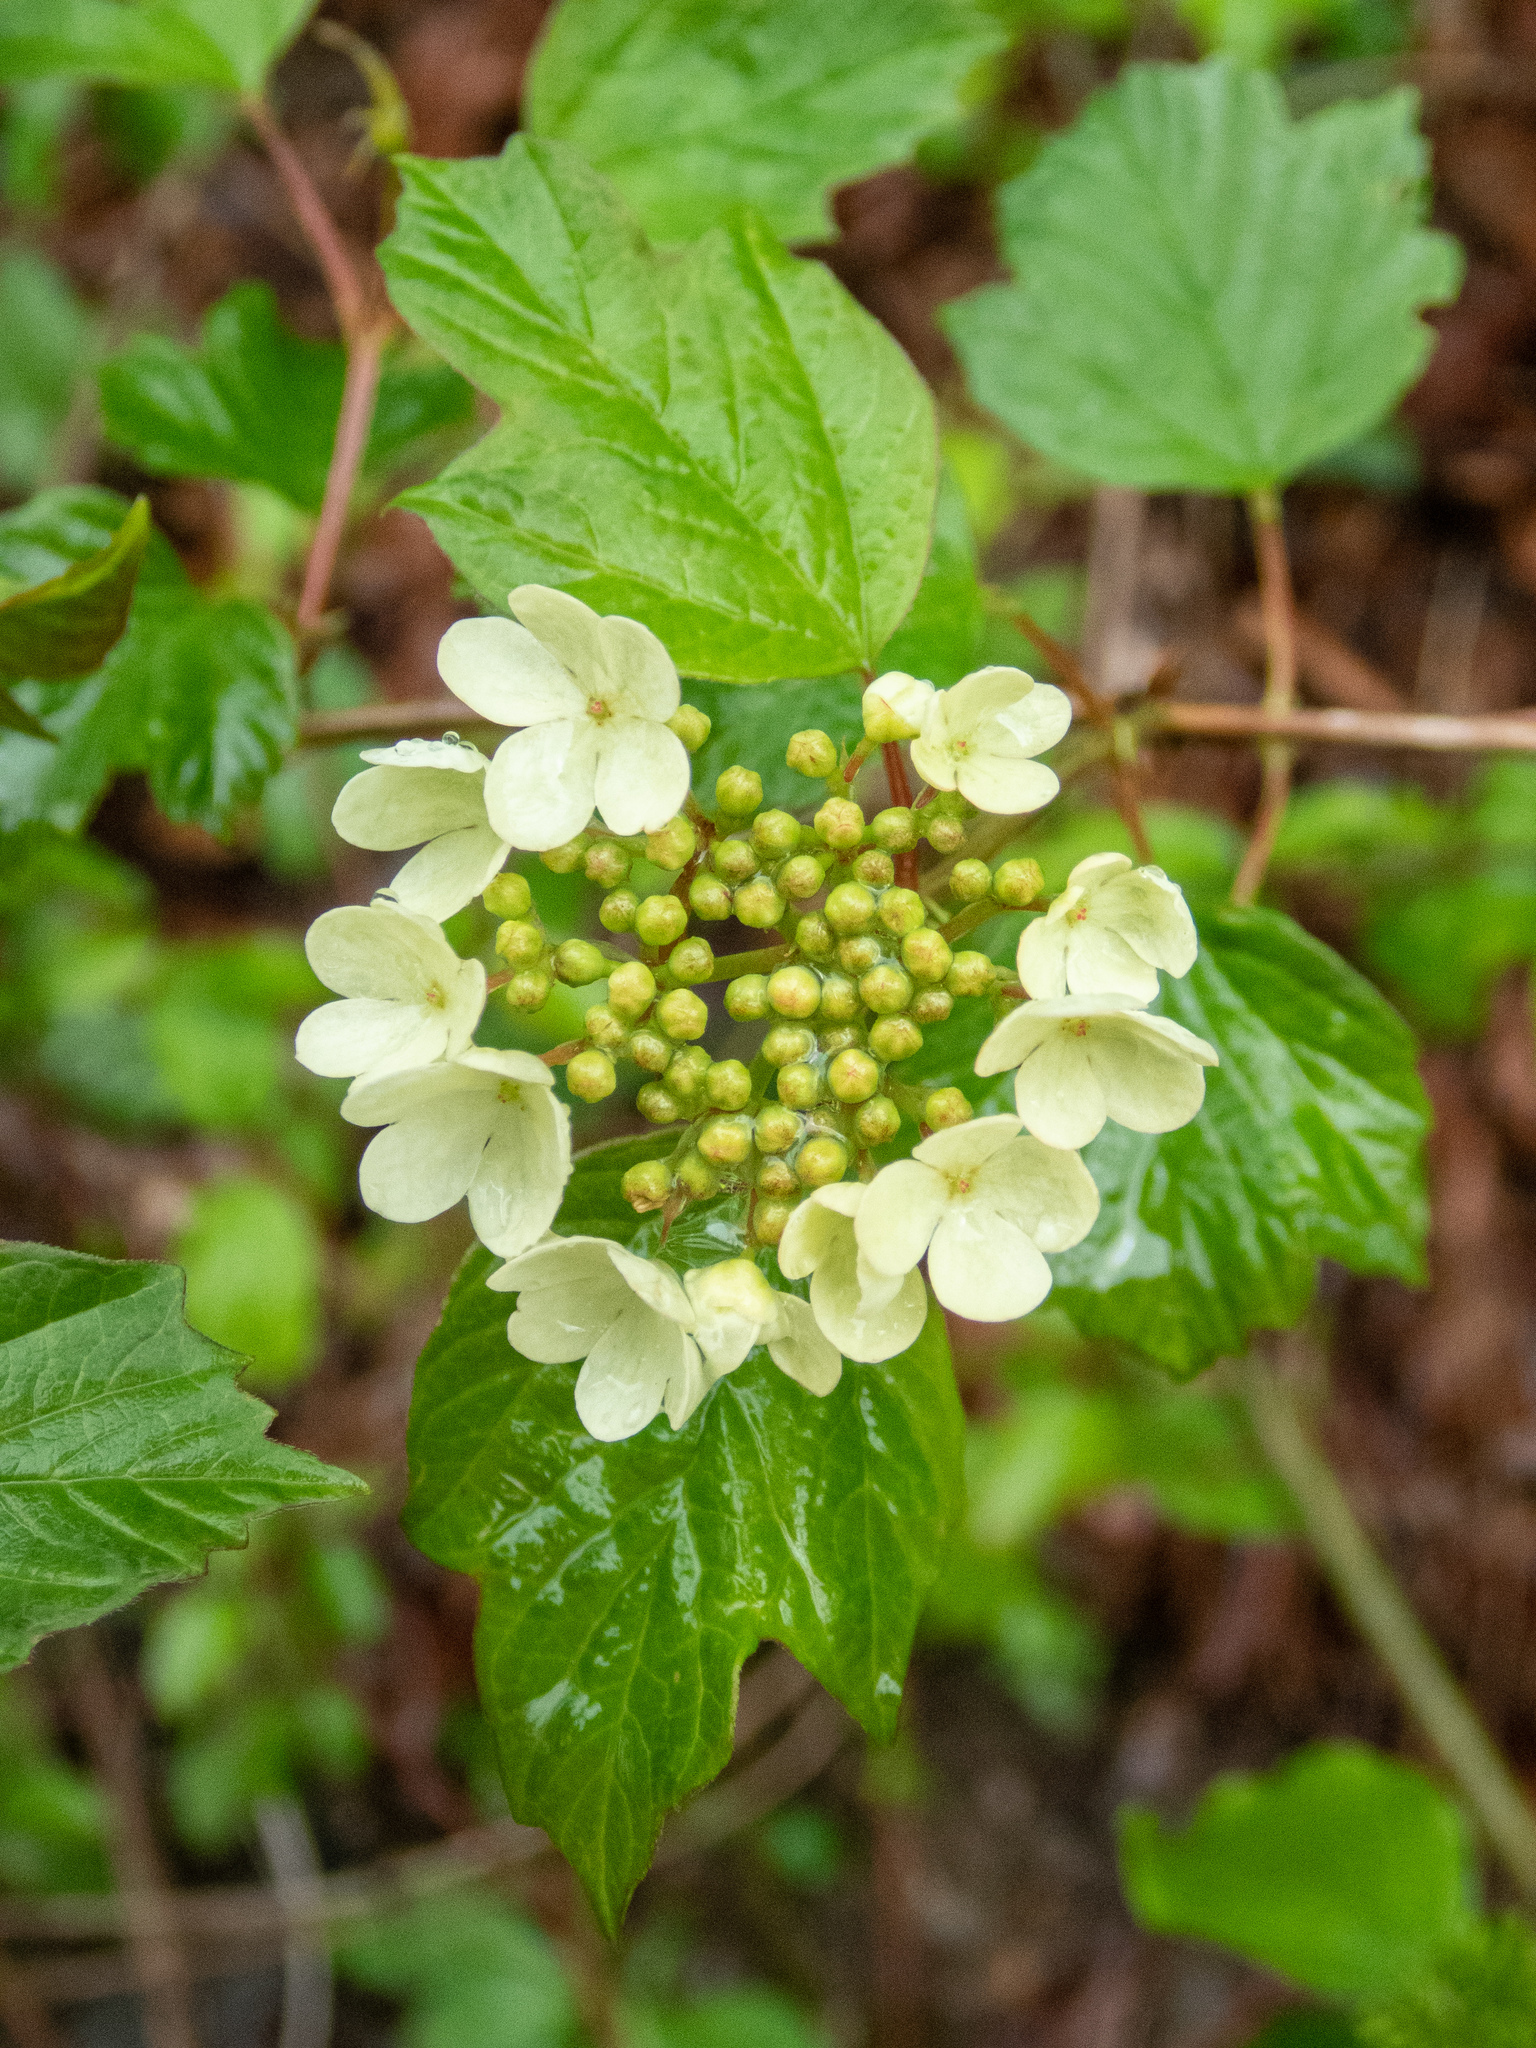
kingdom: Plantae
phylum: Tracheophyta
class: Magnoliopsida
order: Dipsacales
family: Viburnaceae
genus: Viburnum
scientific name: Viburnum opulus
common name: Guelder-rose
